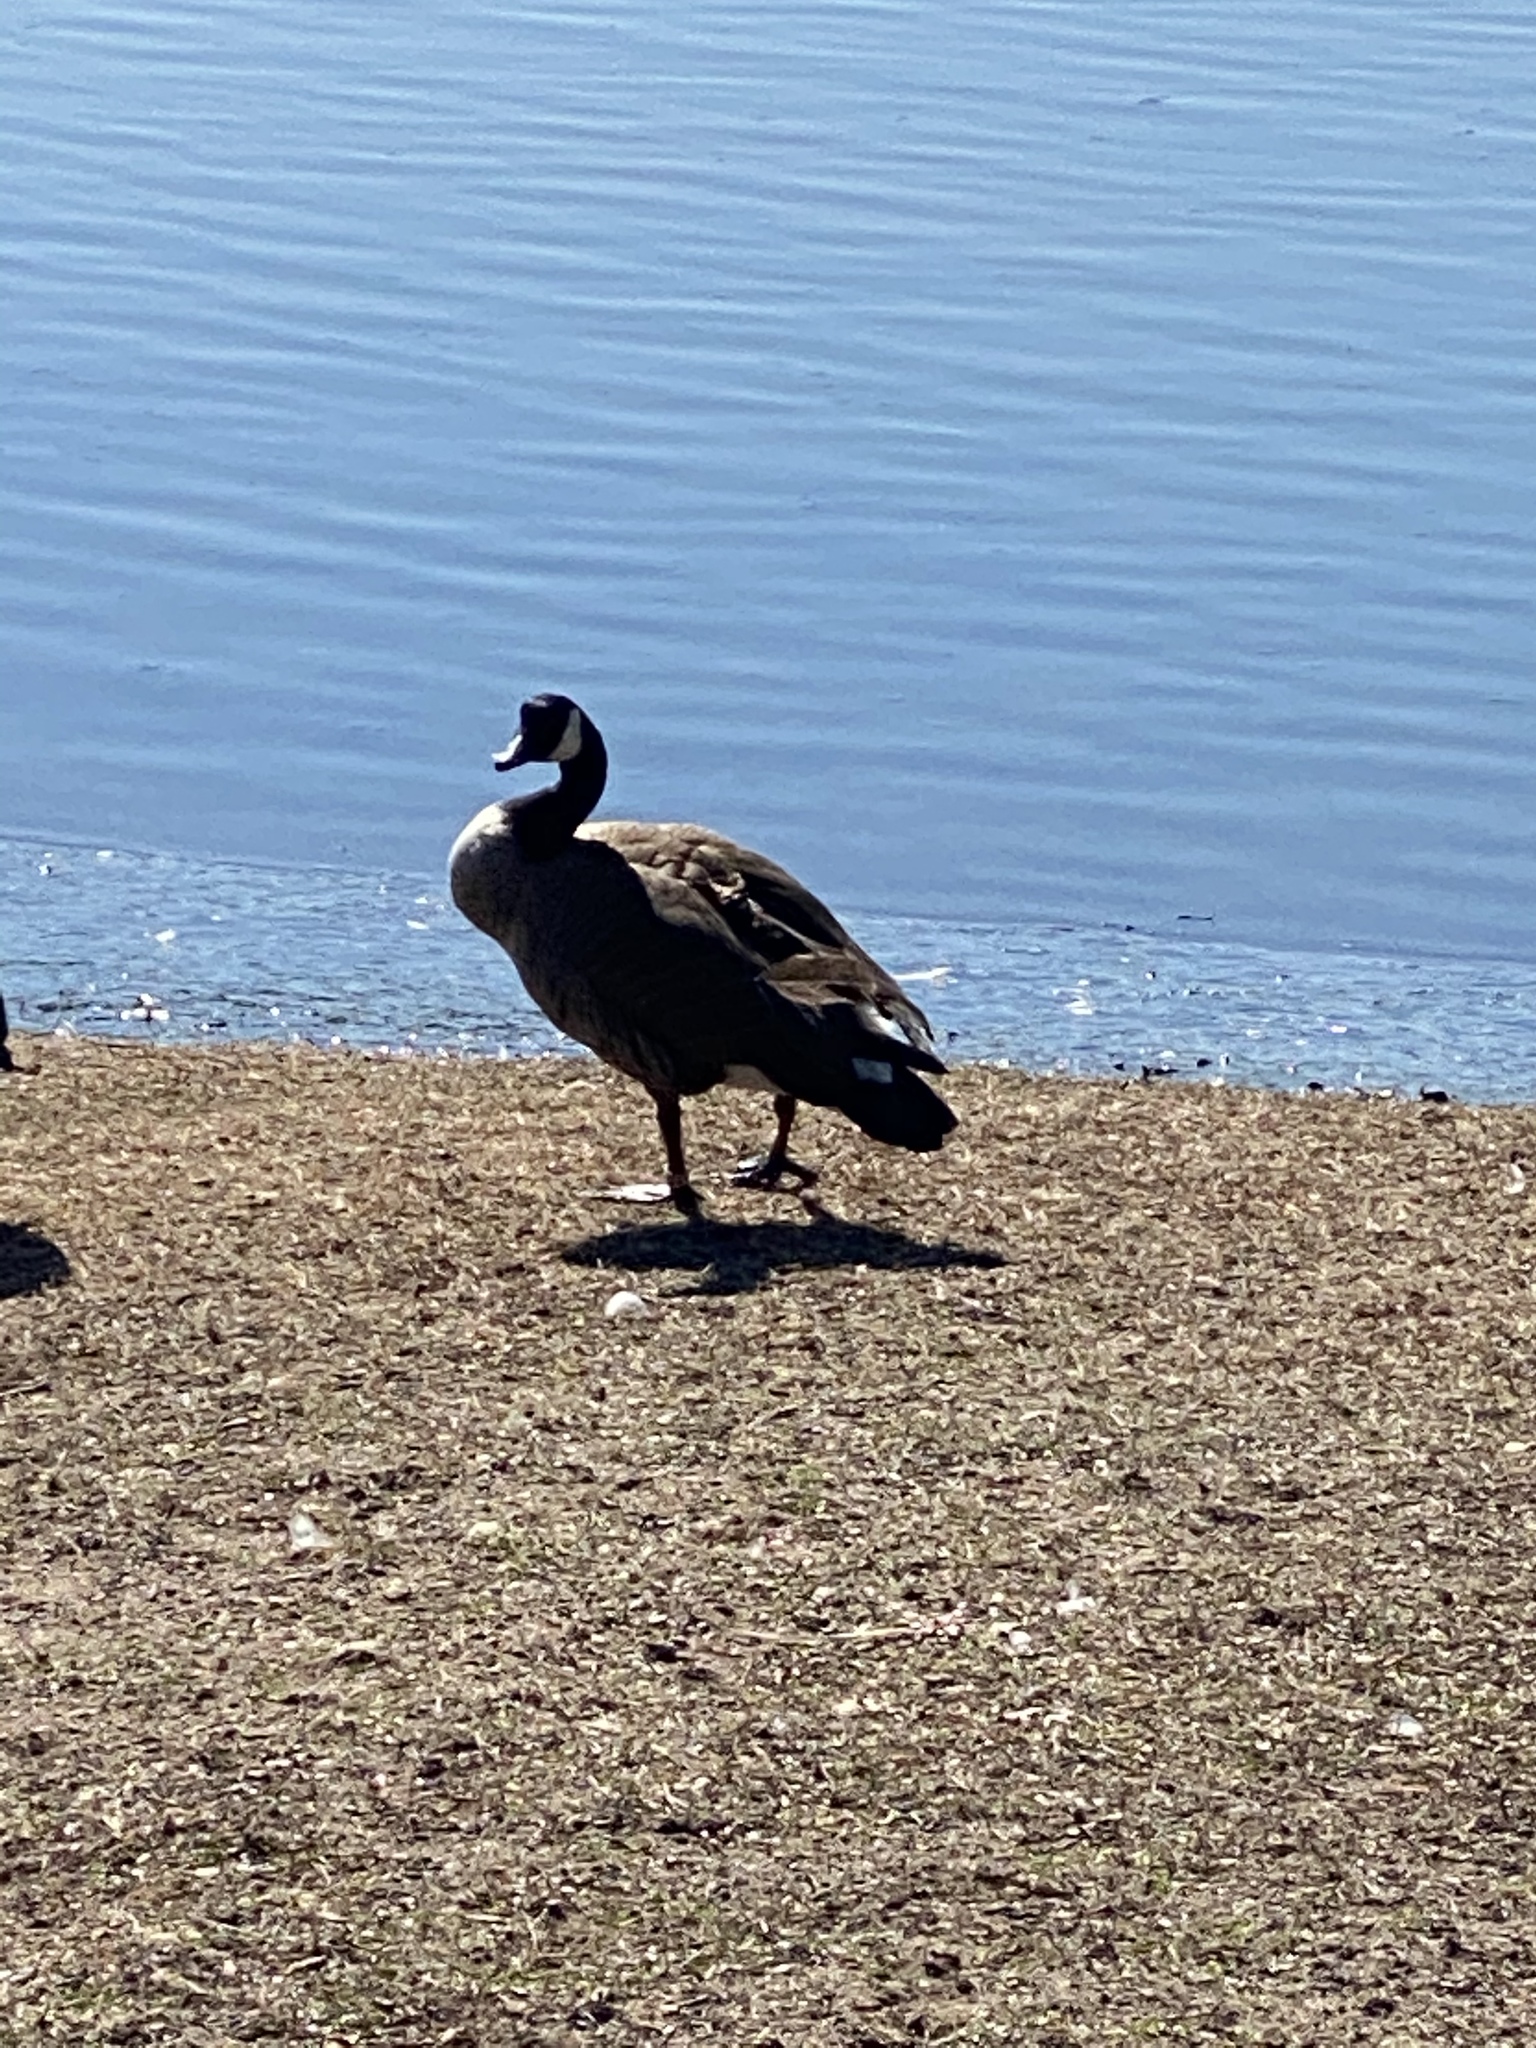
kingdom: Animalia
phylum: Chordata
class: Aves
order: Anseriformes
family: Anatidae
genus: Branta
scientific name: Branta canadensis
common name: Canada goose
